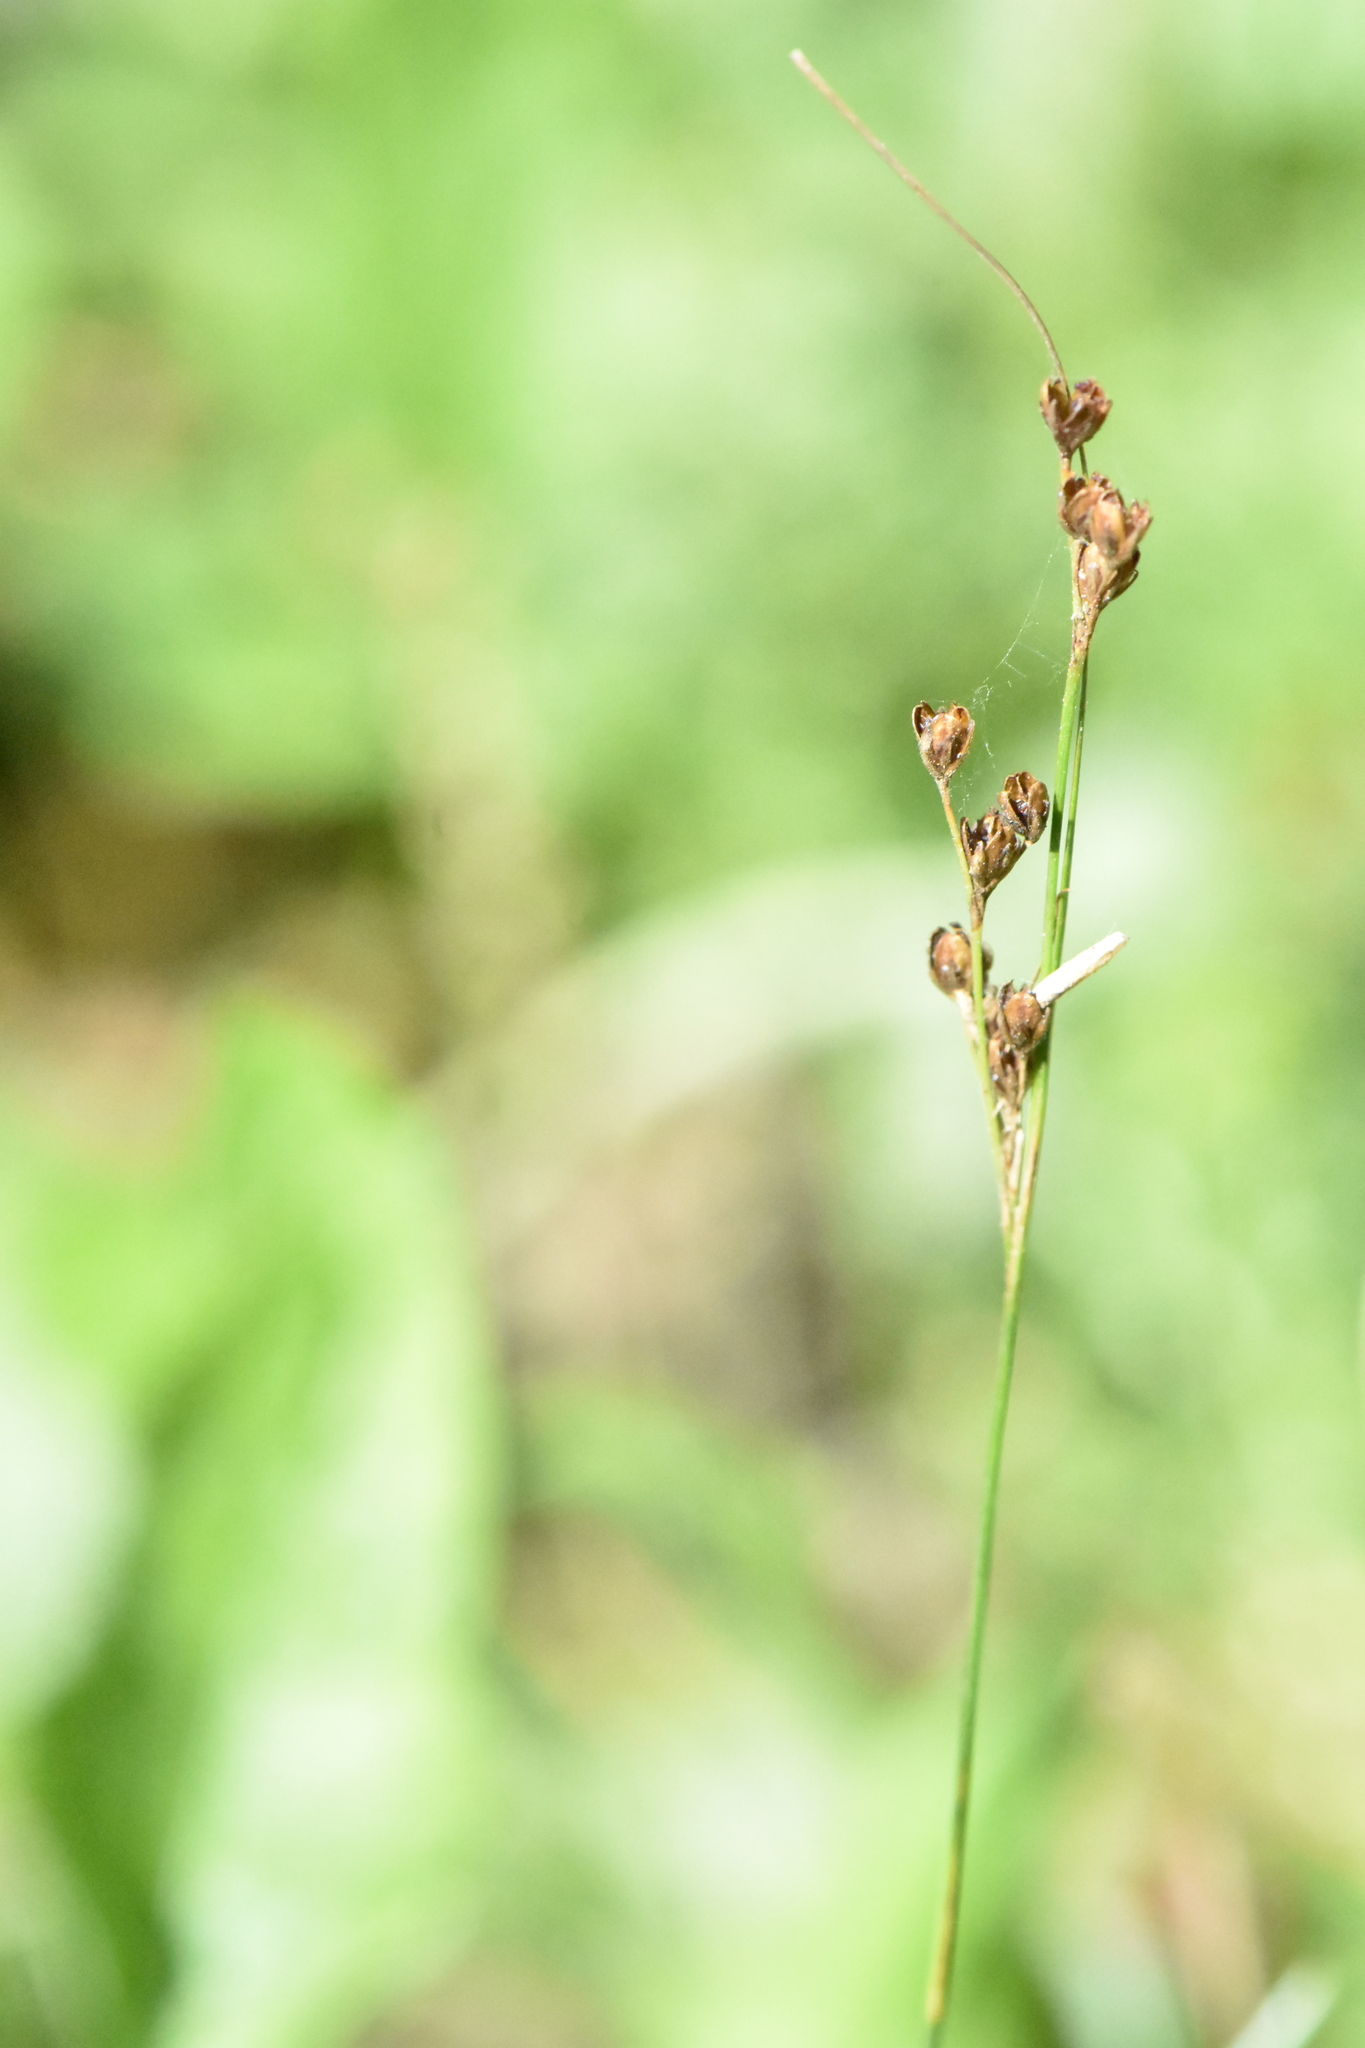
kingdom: Plantae
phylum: Tracheophyta
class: Liliopsida
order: Poales
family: Juncaceae
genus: Juncus
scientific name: Juncus compressus
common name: Round-fruited rush
